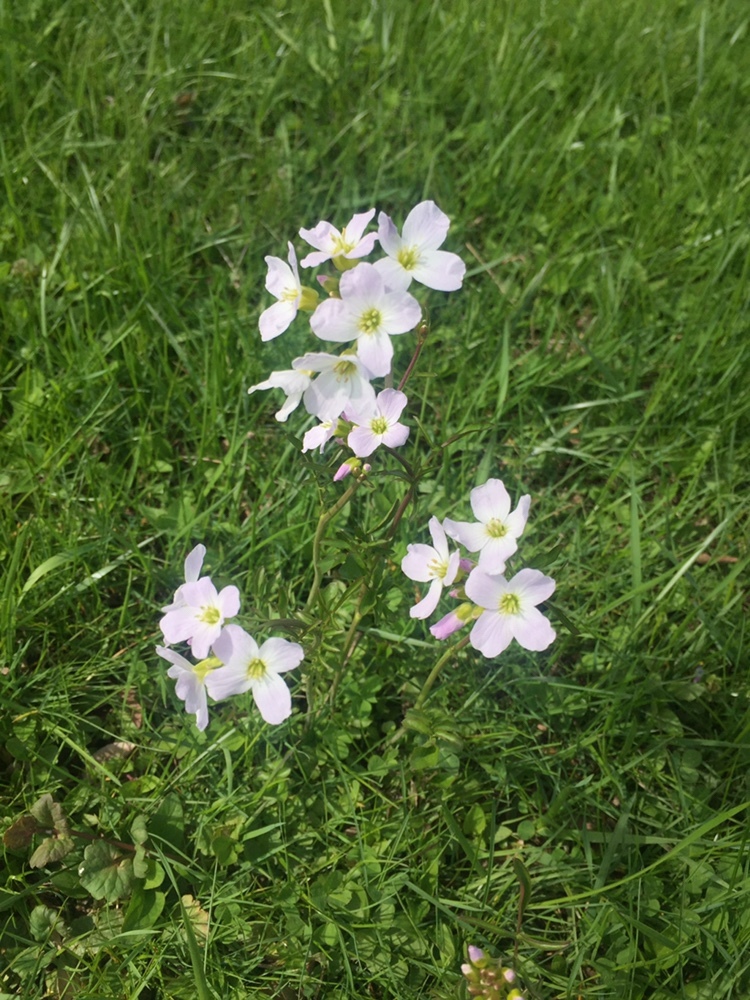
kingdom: Plantae
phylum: Tracheophyta
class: Magnoliopsida
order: Brassicales
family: Brassicaceae
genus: Cardamine
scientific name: Cardamine pratensis
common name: Cuckoo flower
